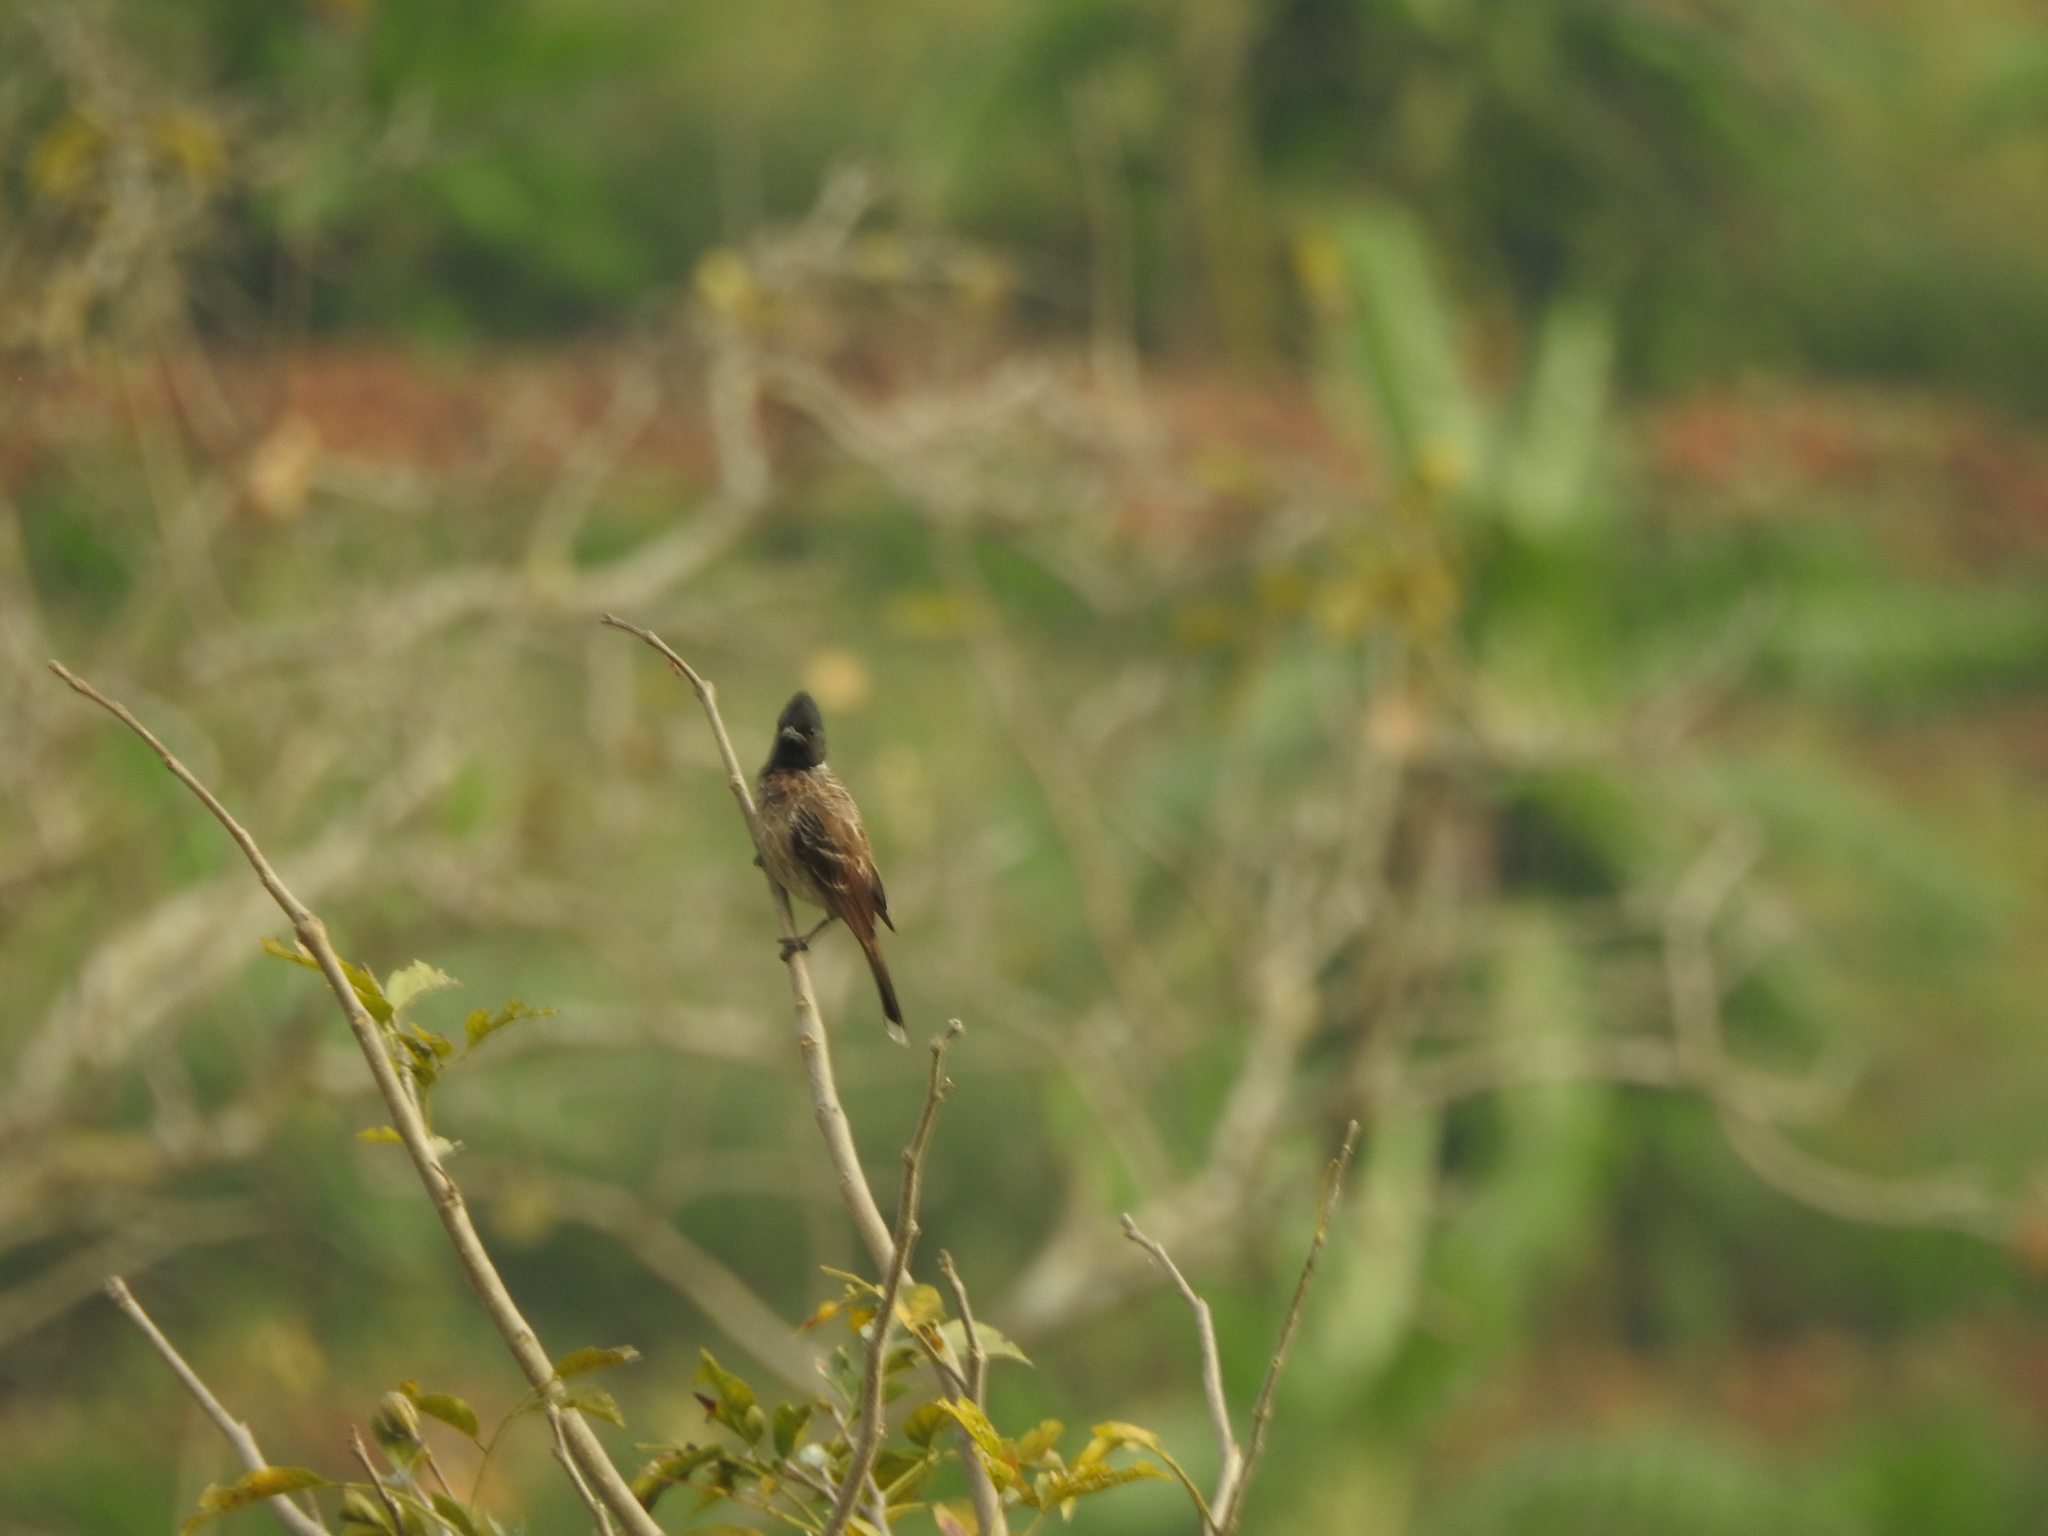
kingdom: Animalia
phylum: Chordata
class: Aves
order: Passeriformes
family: Pycnonotidae
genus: Pycnonotus
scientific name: Pycnonotus cafer
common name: Red-vented bulbul
